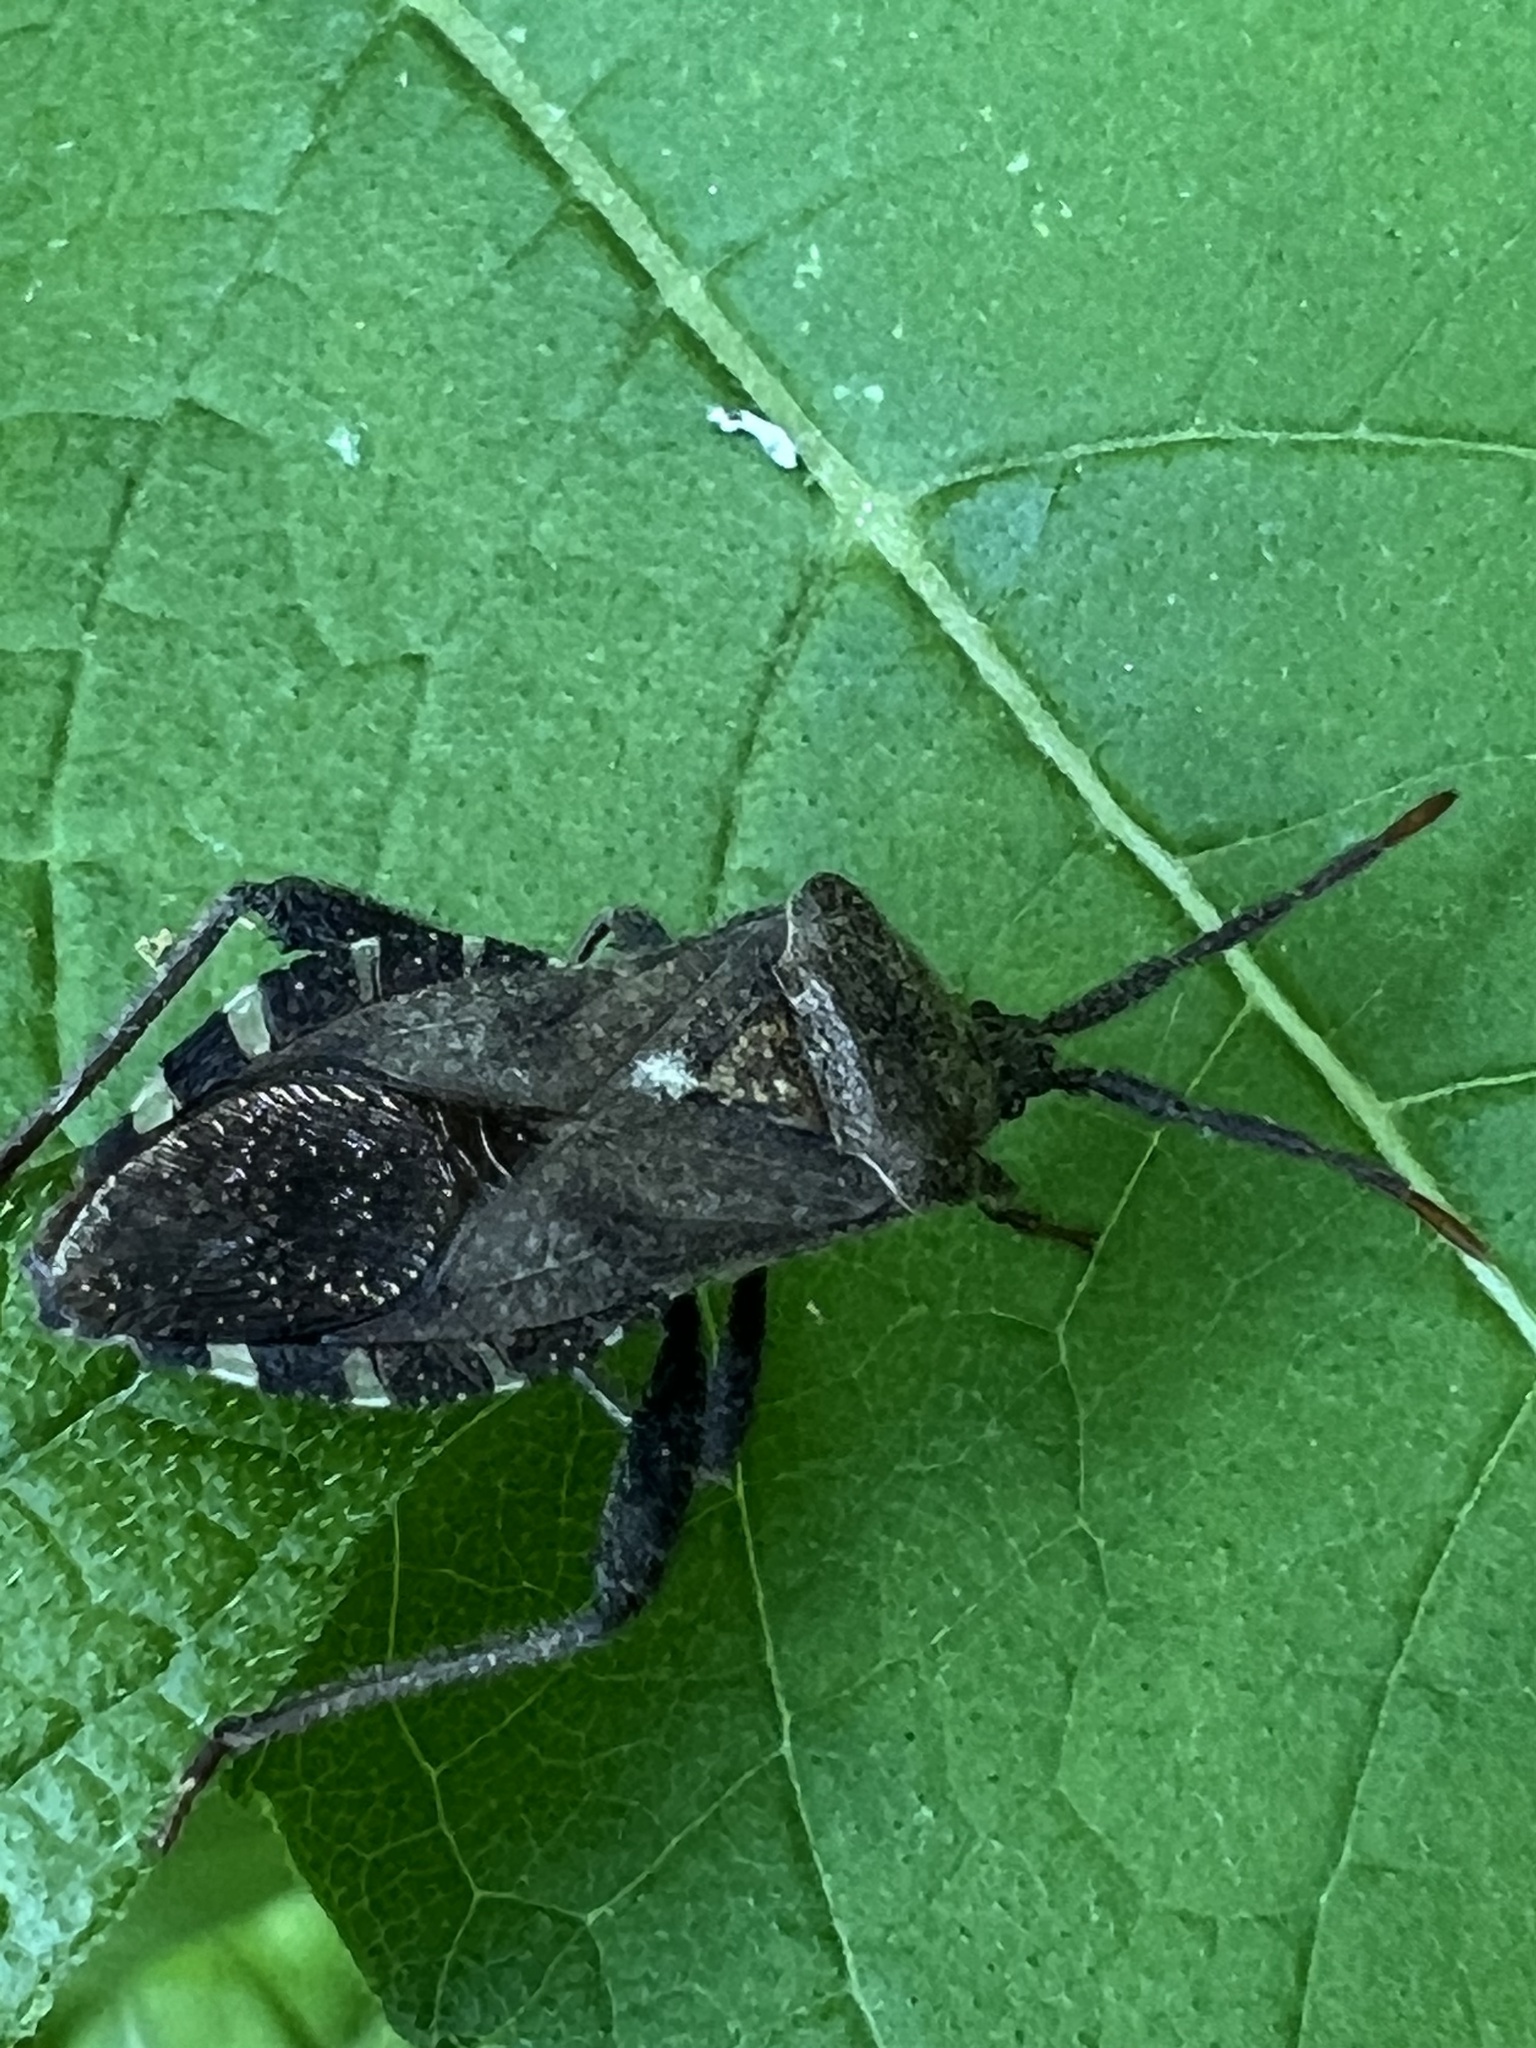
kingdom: Animalia
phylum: Arthropoda
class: Insecta
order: Hemiptera
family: Coreidae
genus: Piezogaster
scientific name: Piezogaster calcarator
